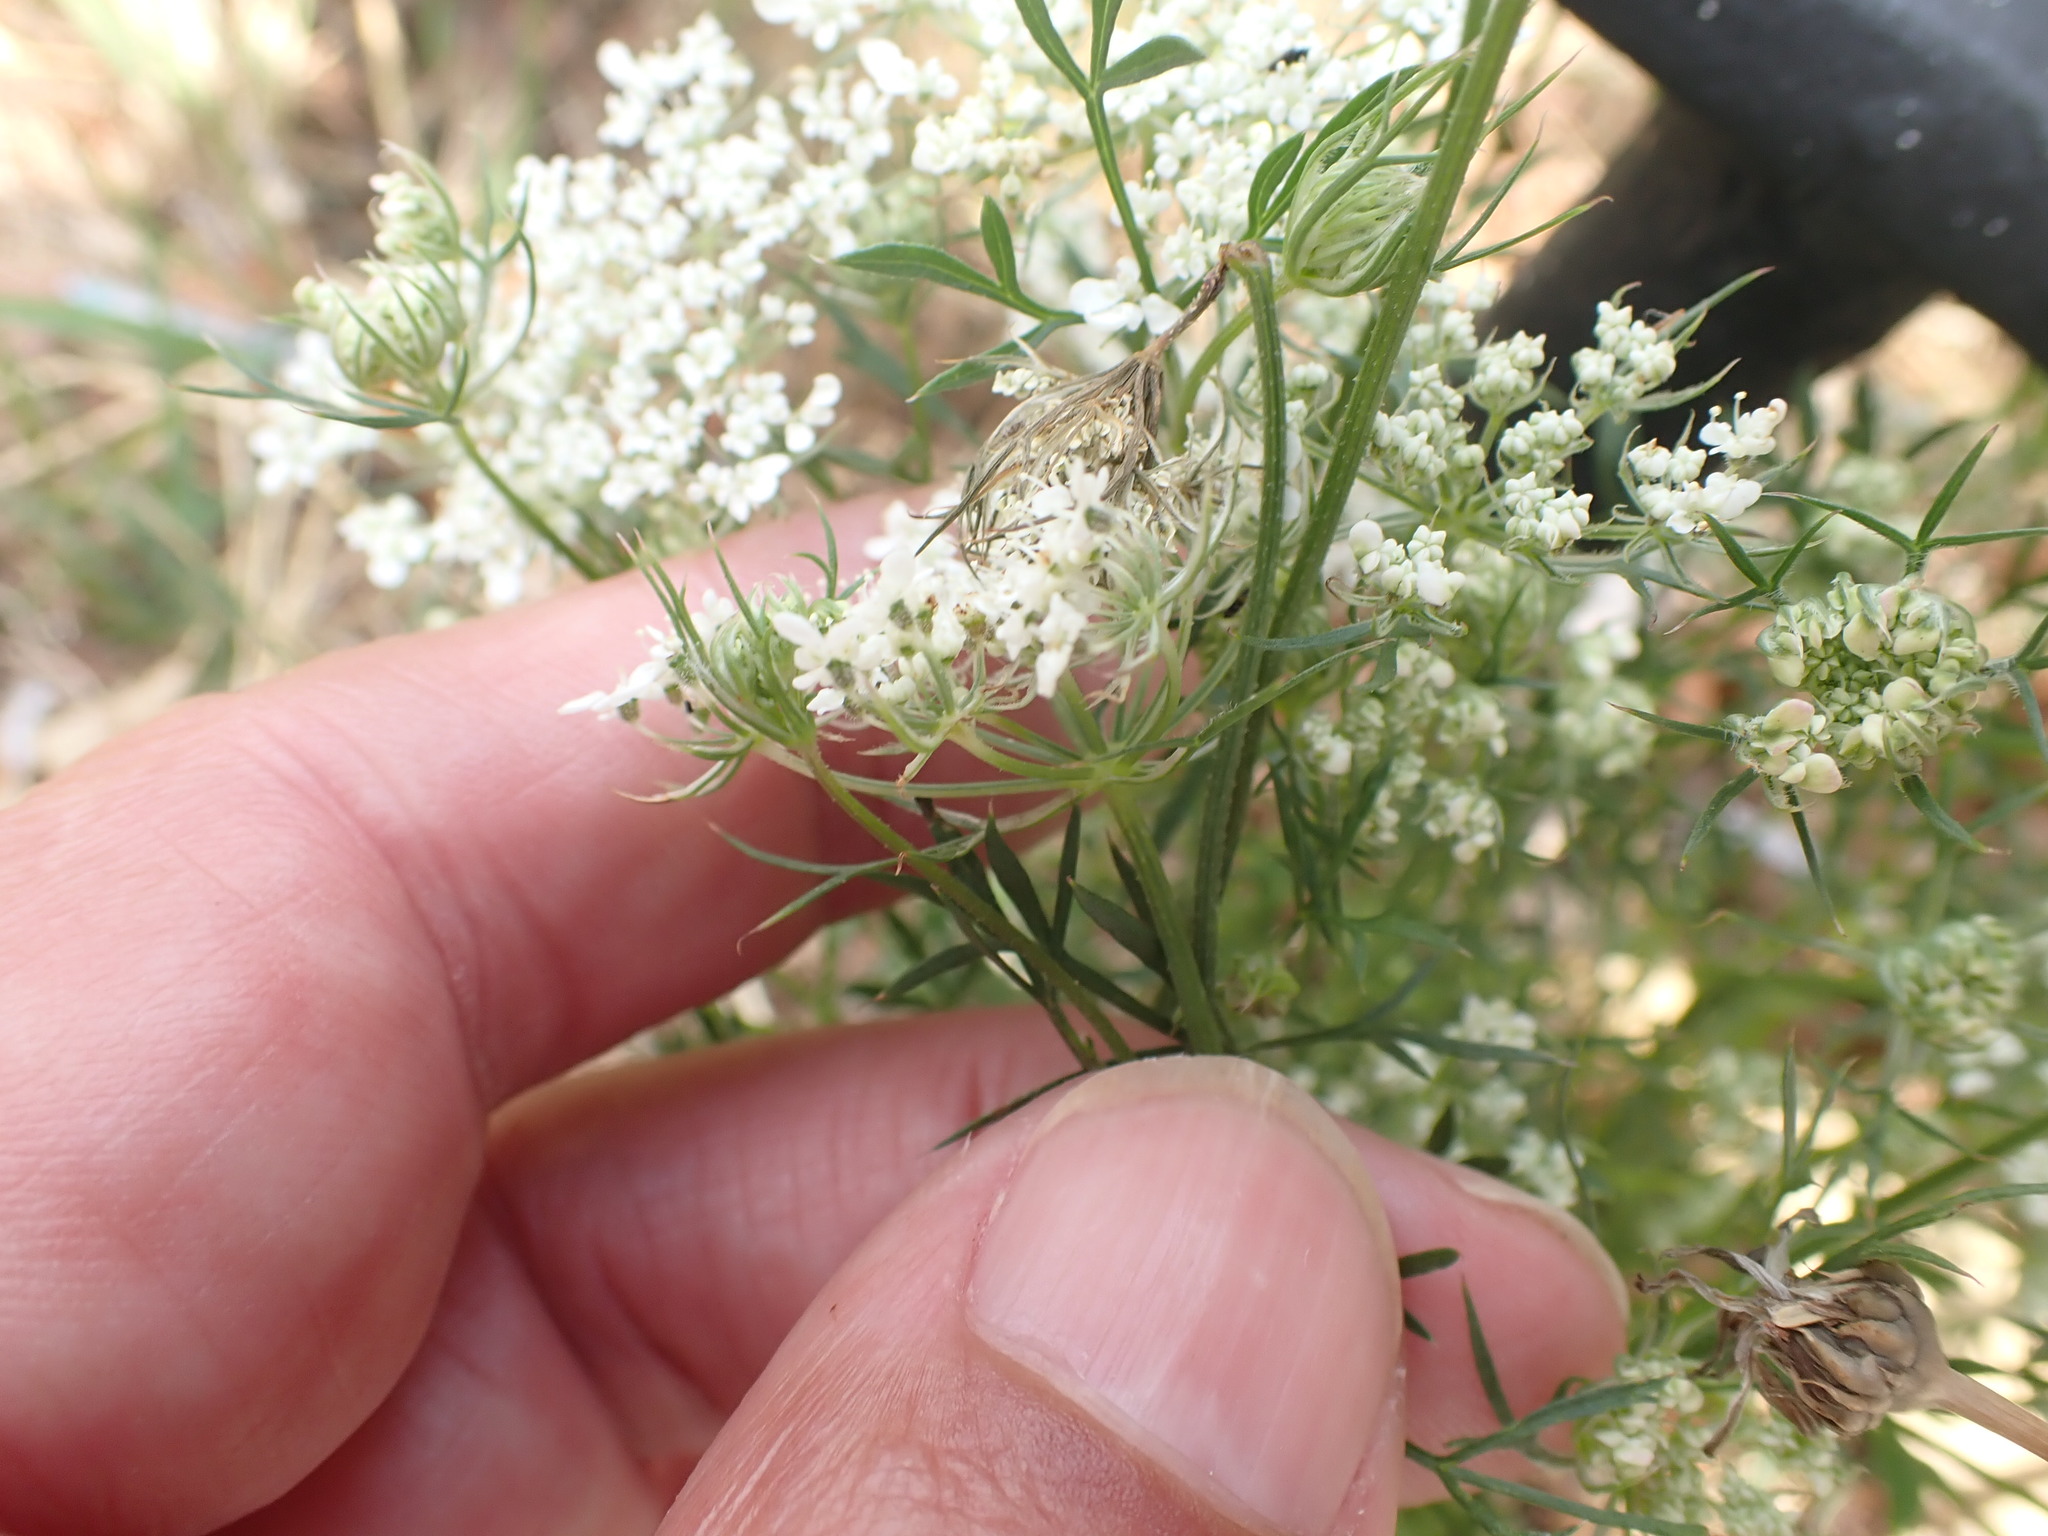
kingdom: Plantae
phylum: Tracheophyta
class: Magnoliopsida
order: Apiales
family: Apiaceae
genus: Daucus
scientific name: Daucus carota
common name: Wild carrot
